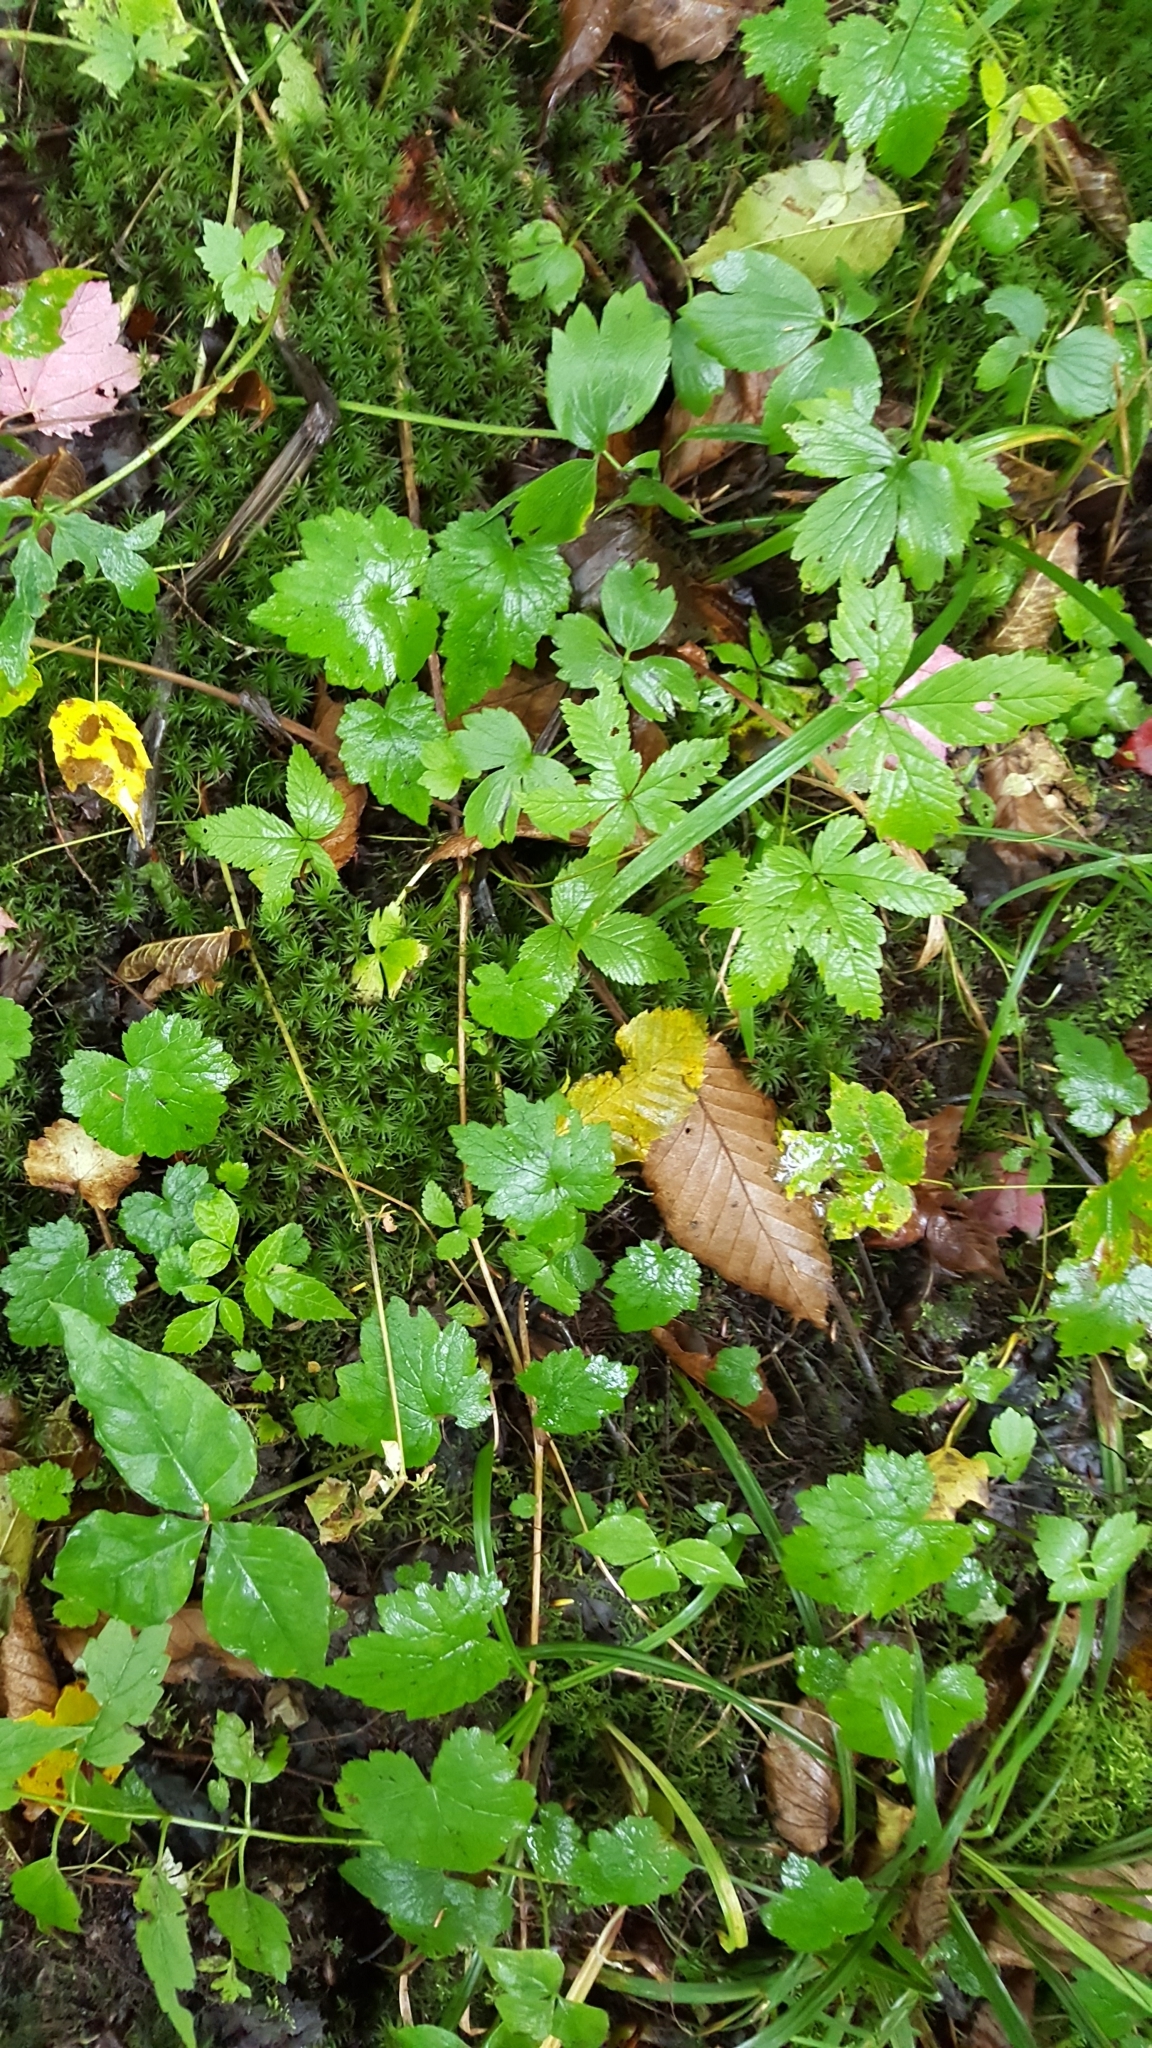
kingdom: Plantae
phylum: Tracheophyta
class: Magnoliopsida
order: Saxifragales
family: Saxifragaceae
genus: Tiarella
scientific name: Tiarella stolonifera
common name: Stoloniferous foamflower
